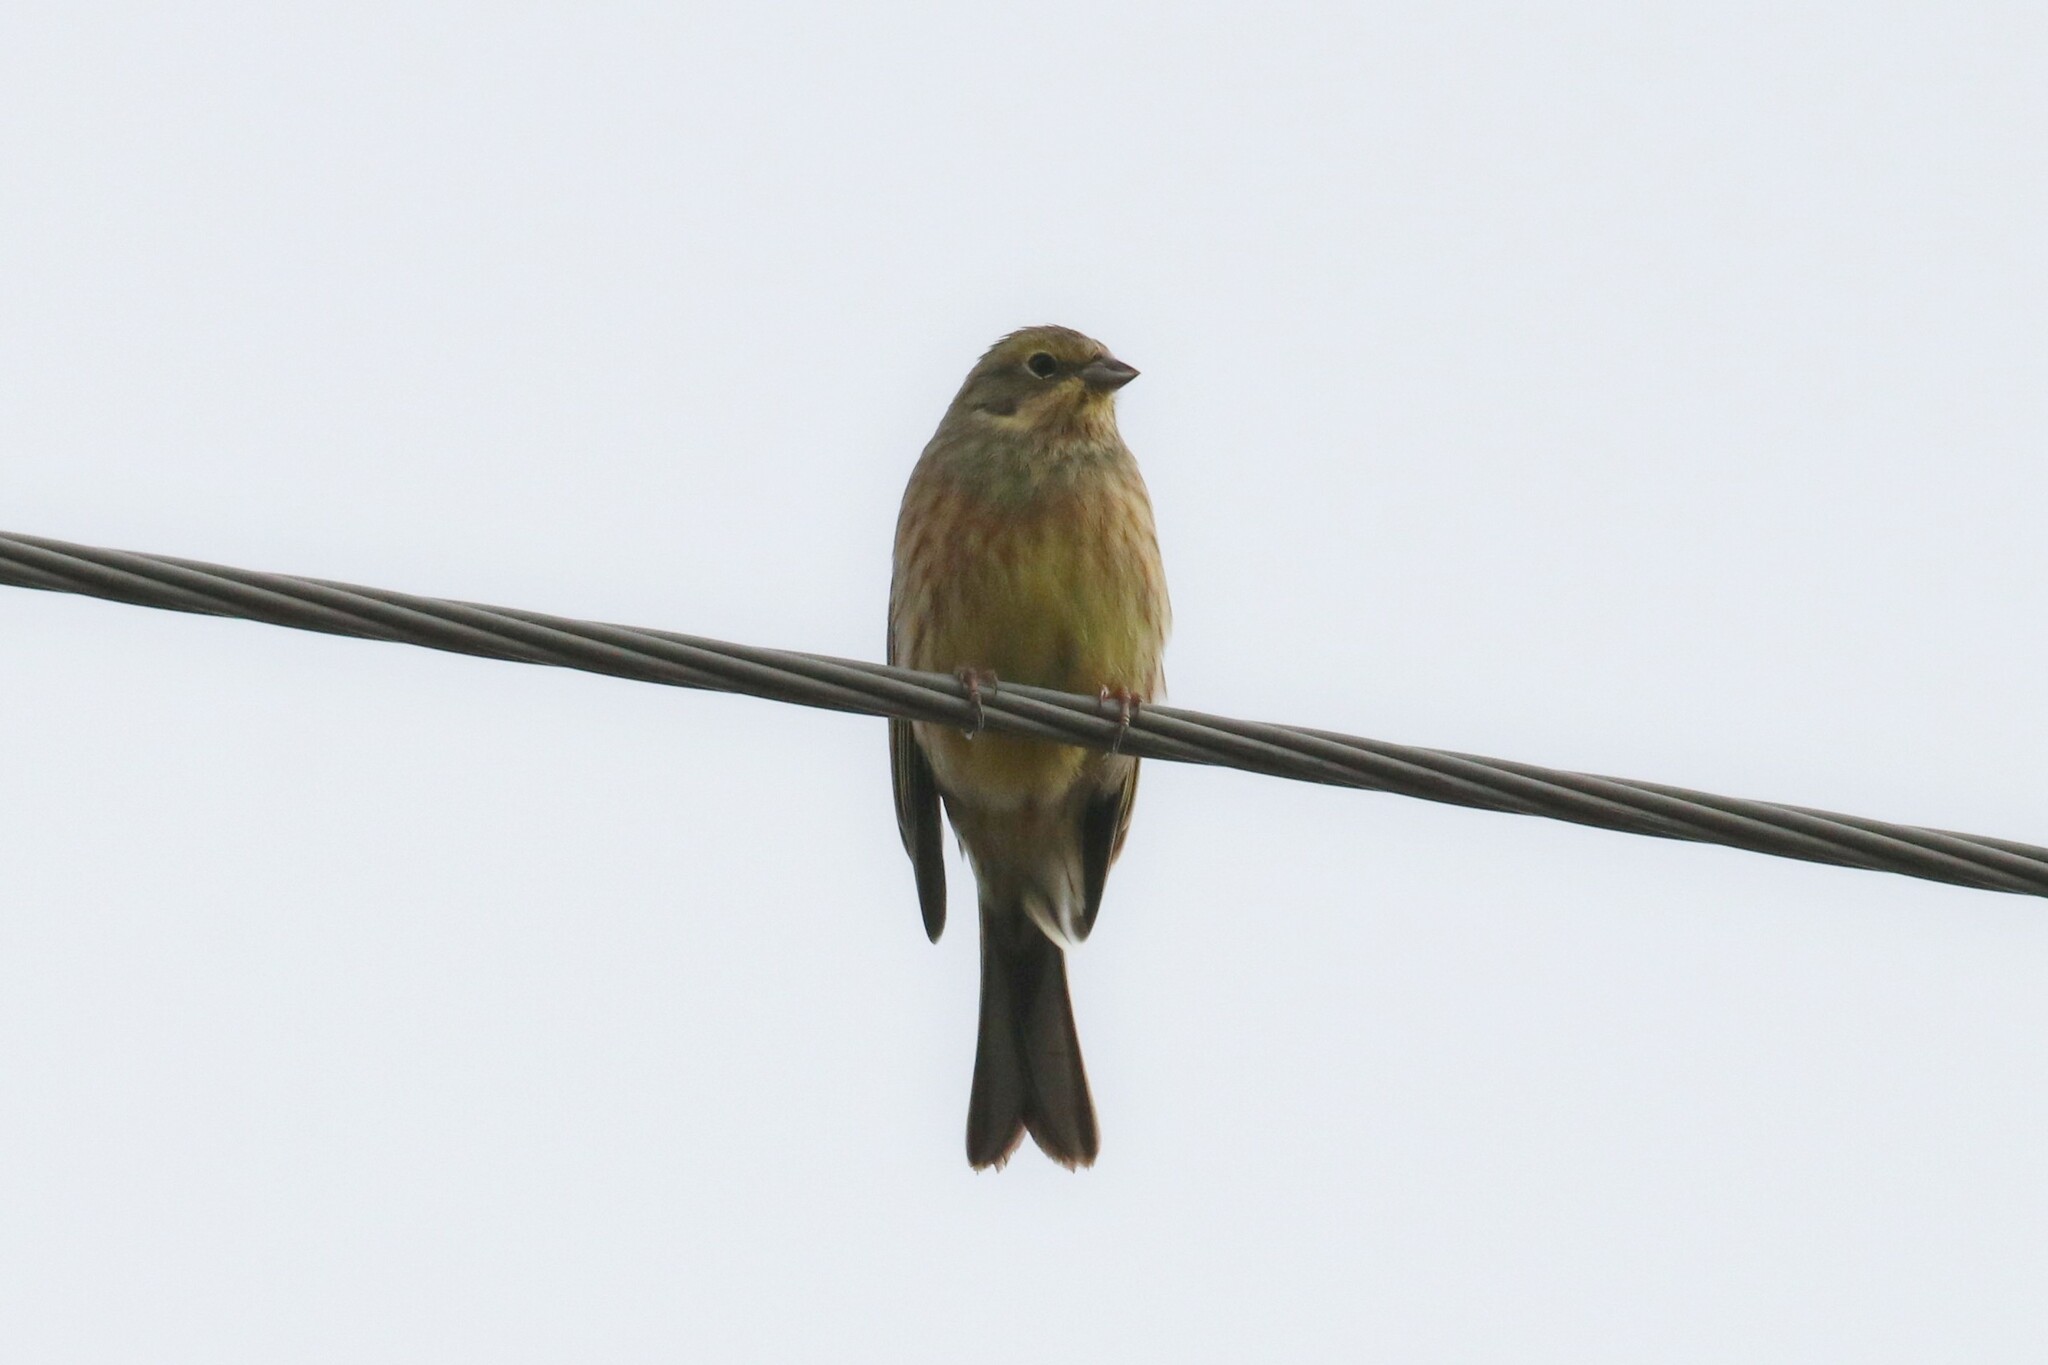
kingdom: Animalia
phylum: Chordata
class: Aves
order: Passeriformes
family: Emberizidae
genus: Emberiza
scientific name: Emberiza citrinella
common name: Yellowhammer
